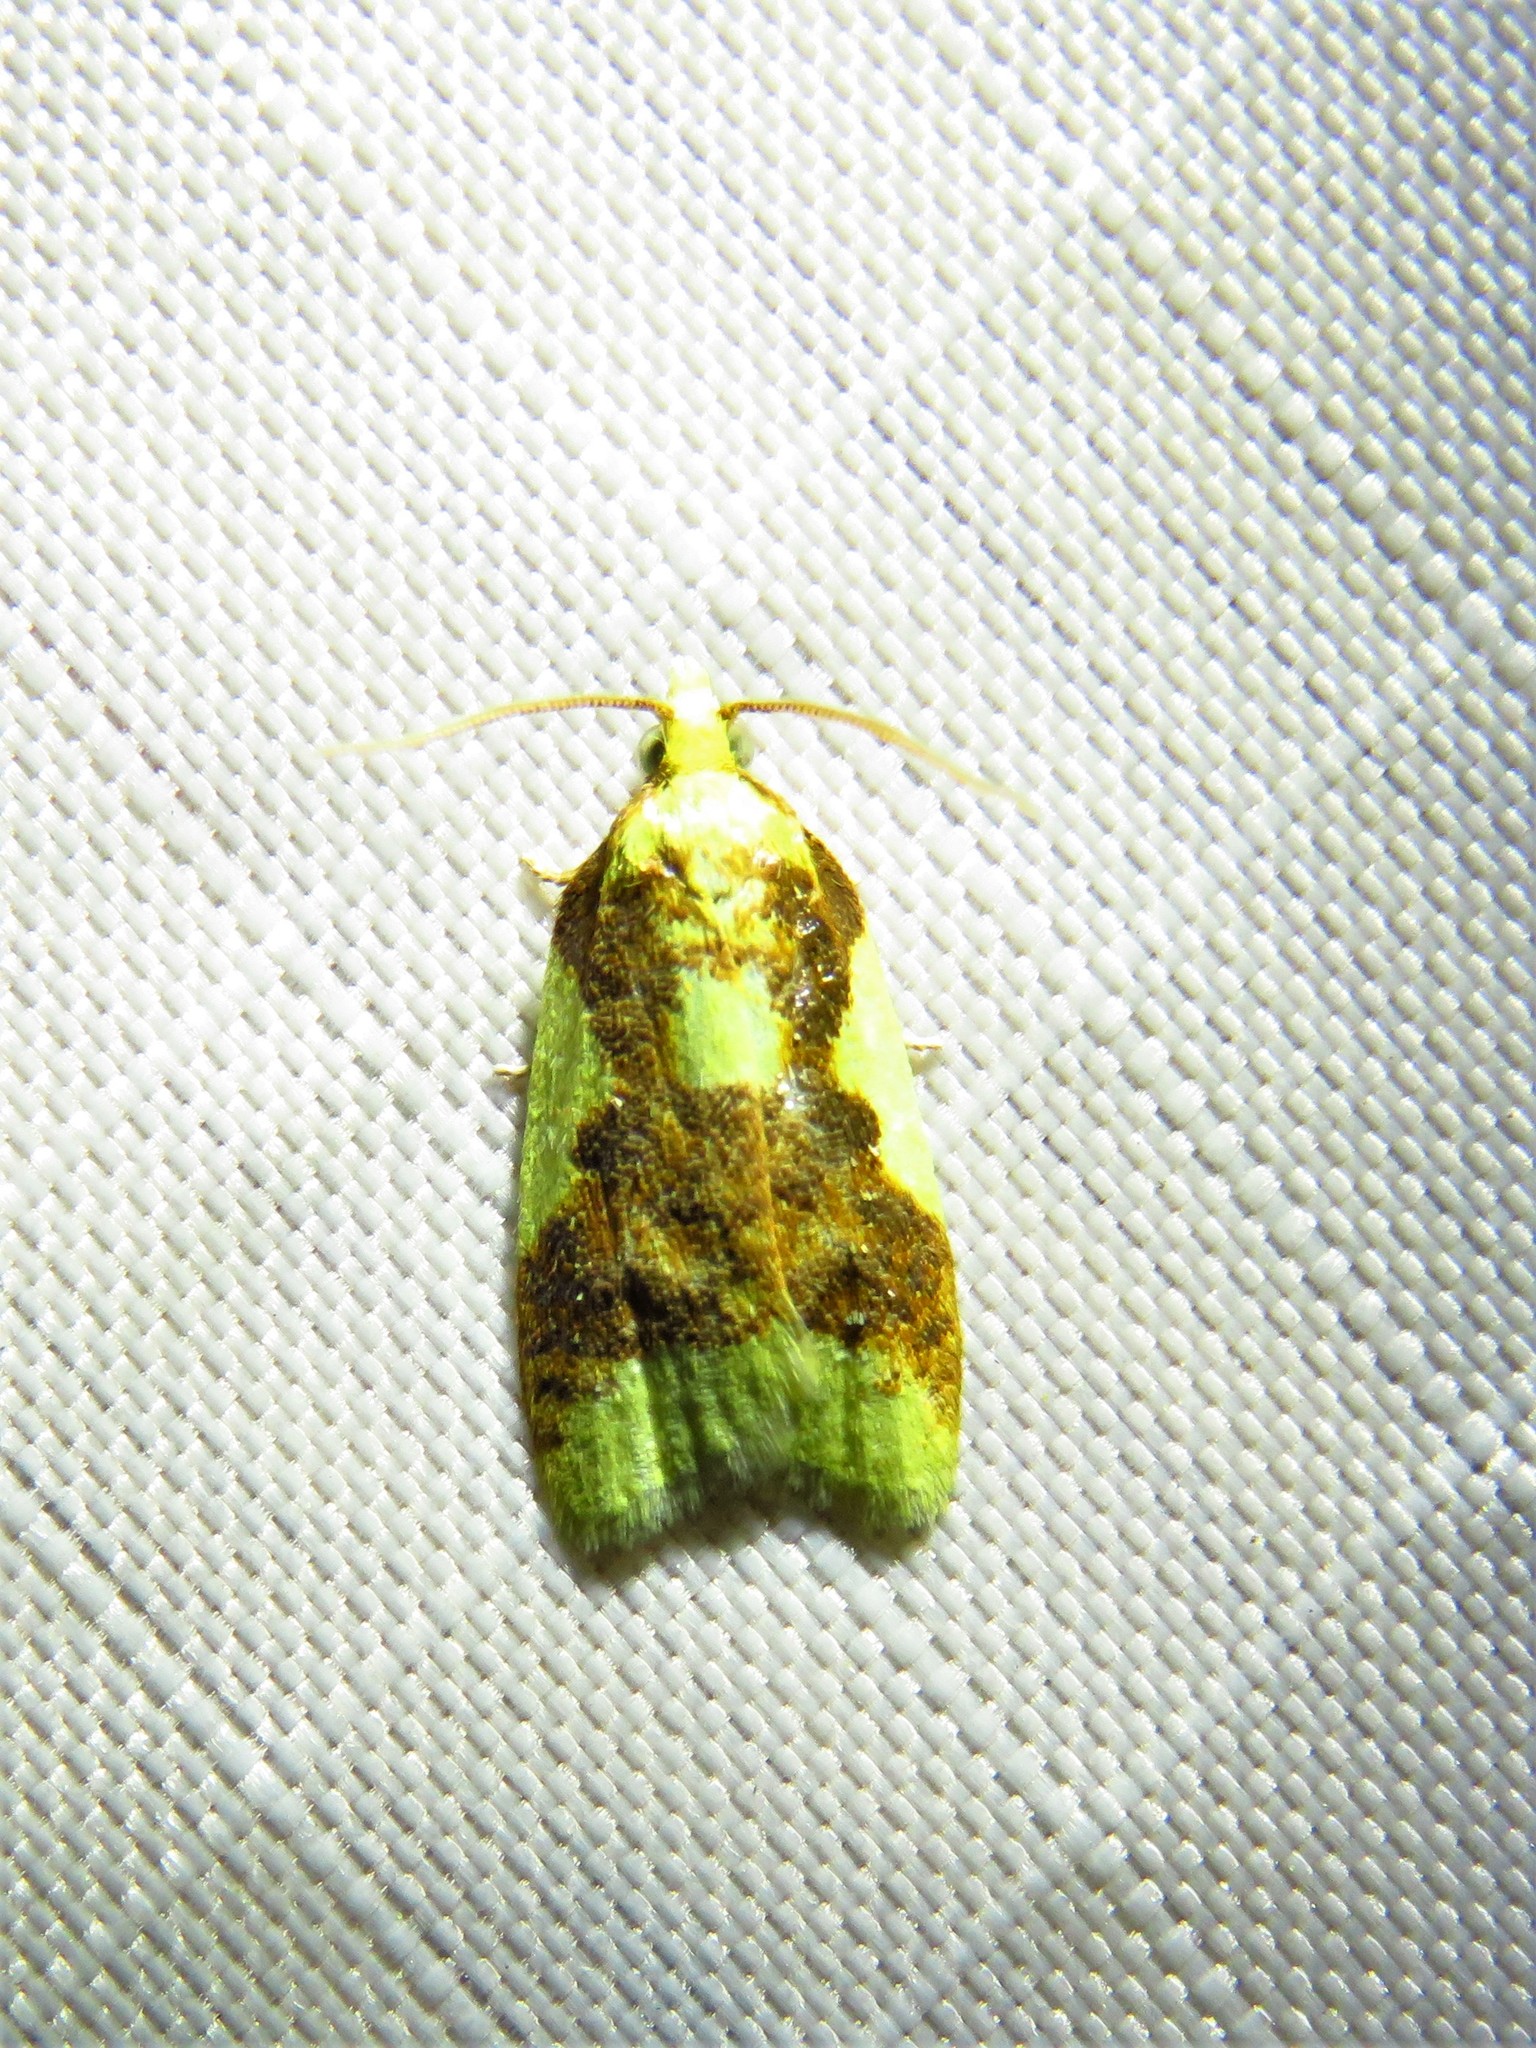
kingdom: Animalia
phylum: Arthropoda
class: Insecta
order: Lepidoptera
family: Tortricidae
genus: Sparganothis
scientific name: Sparganothis pulcherrimana
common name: Beautiful sparganothis
